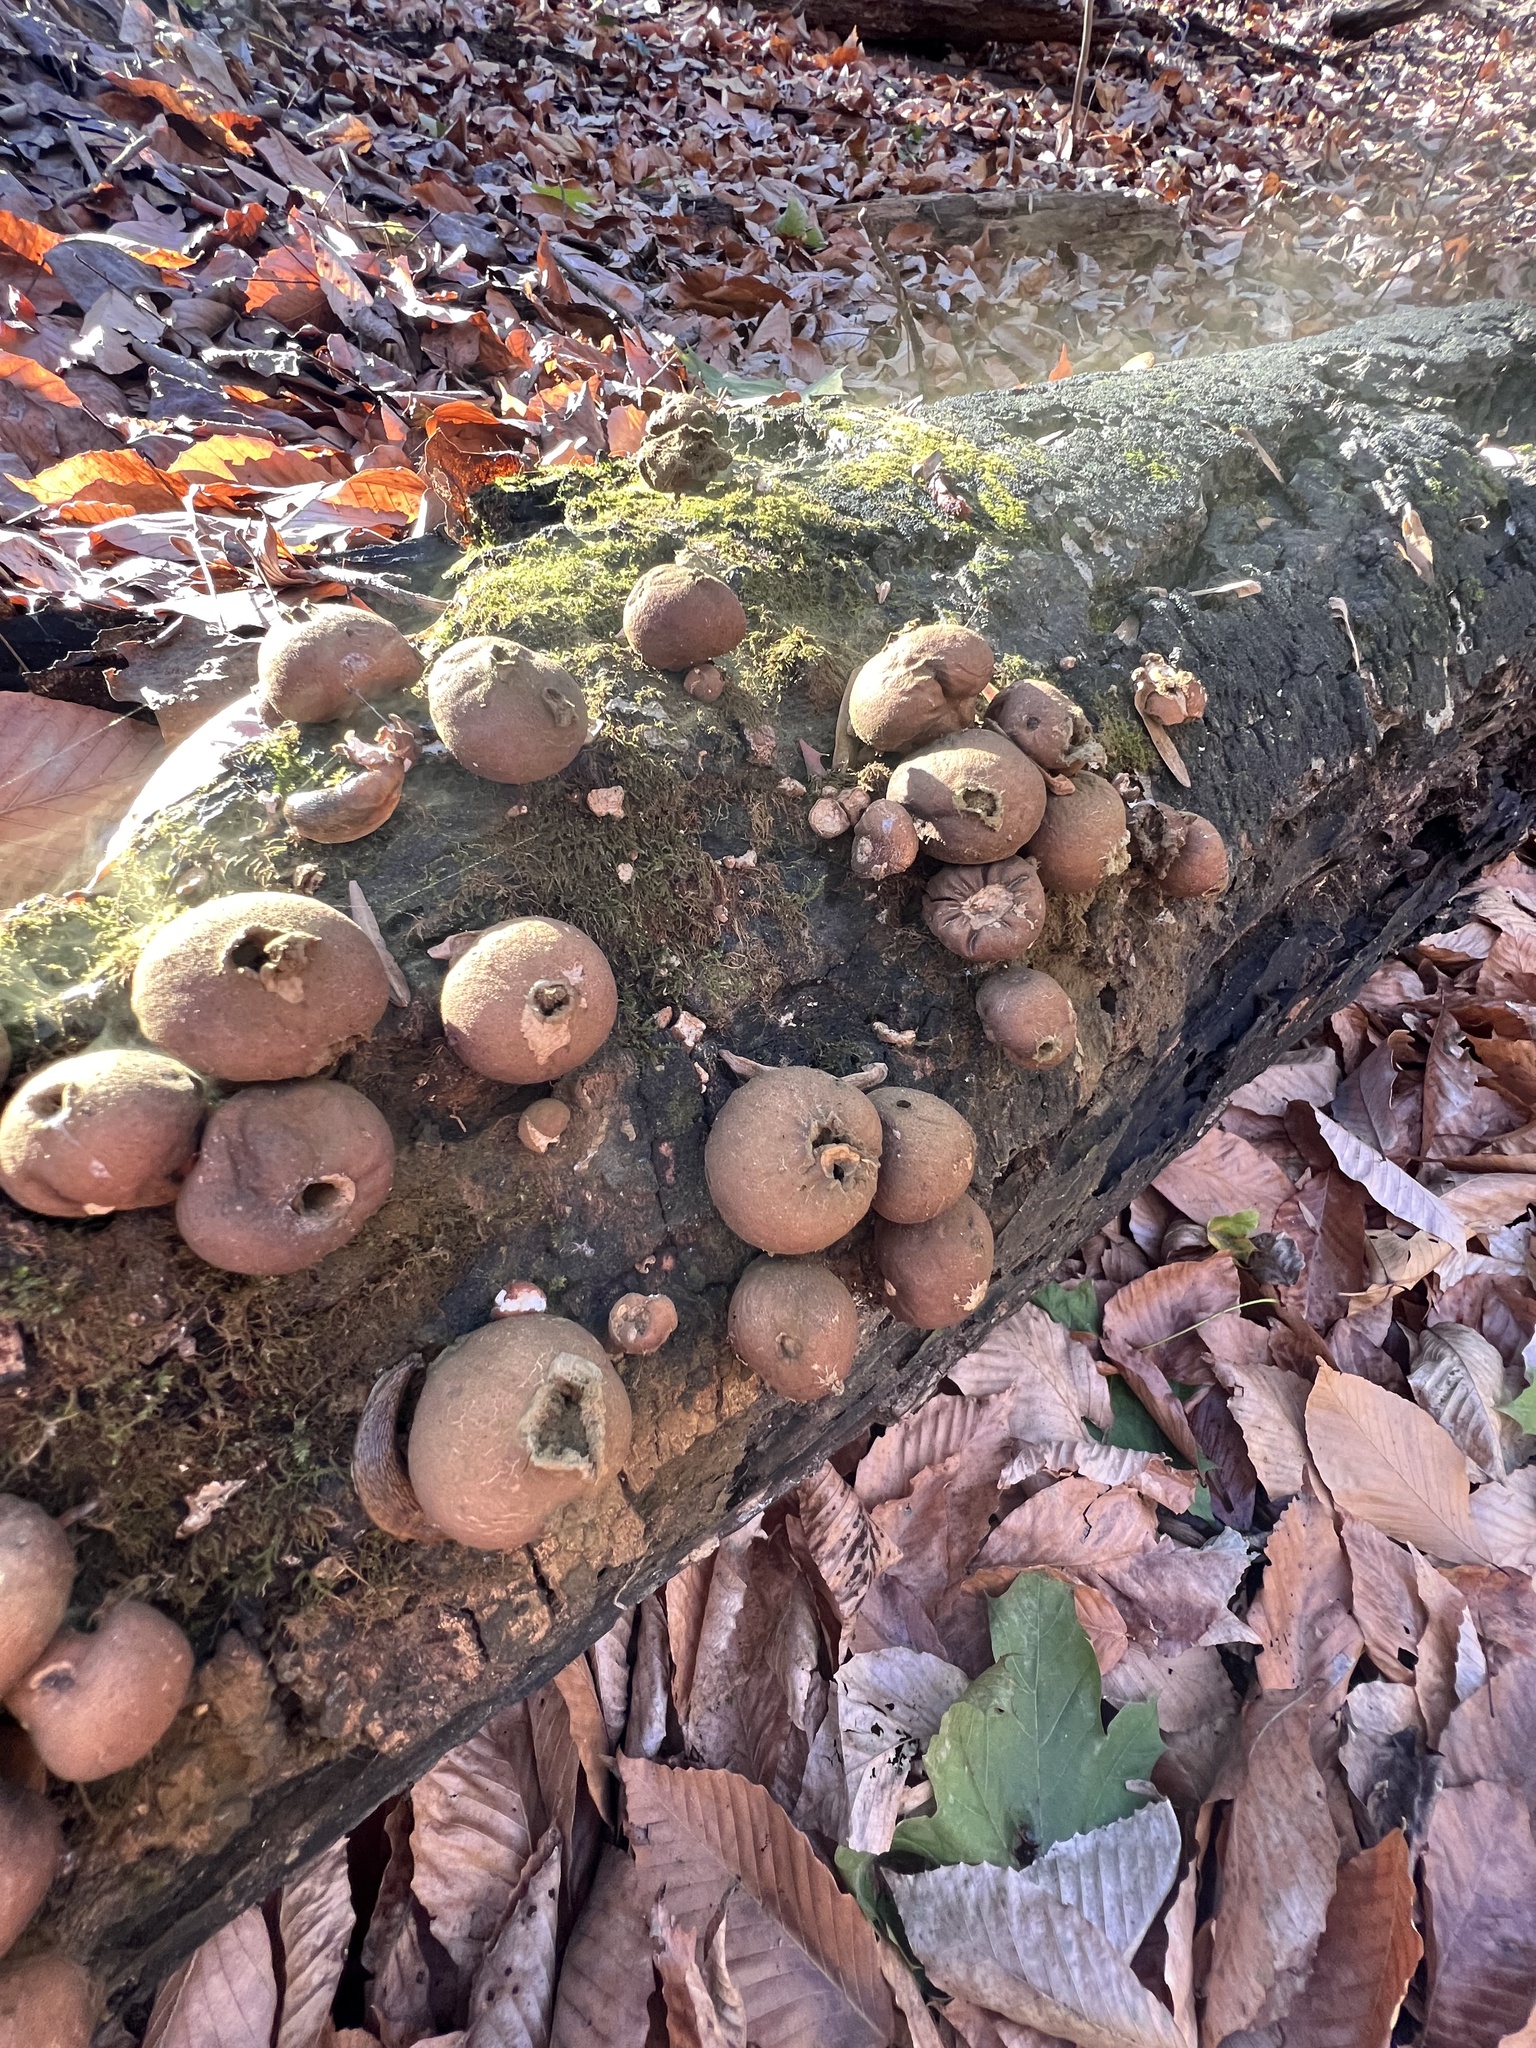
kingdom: Fungi
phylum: Basidiomycota
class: Agaricomycetes
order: Agaricales
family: Lycoperdaceae
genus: Apioperdon
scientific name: Apioperdon pyriforme
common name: Pear-shaped puffball
